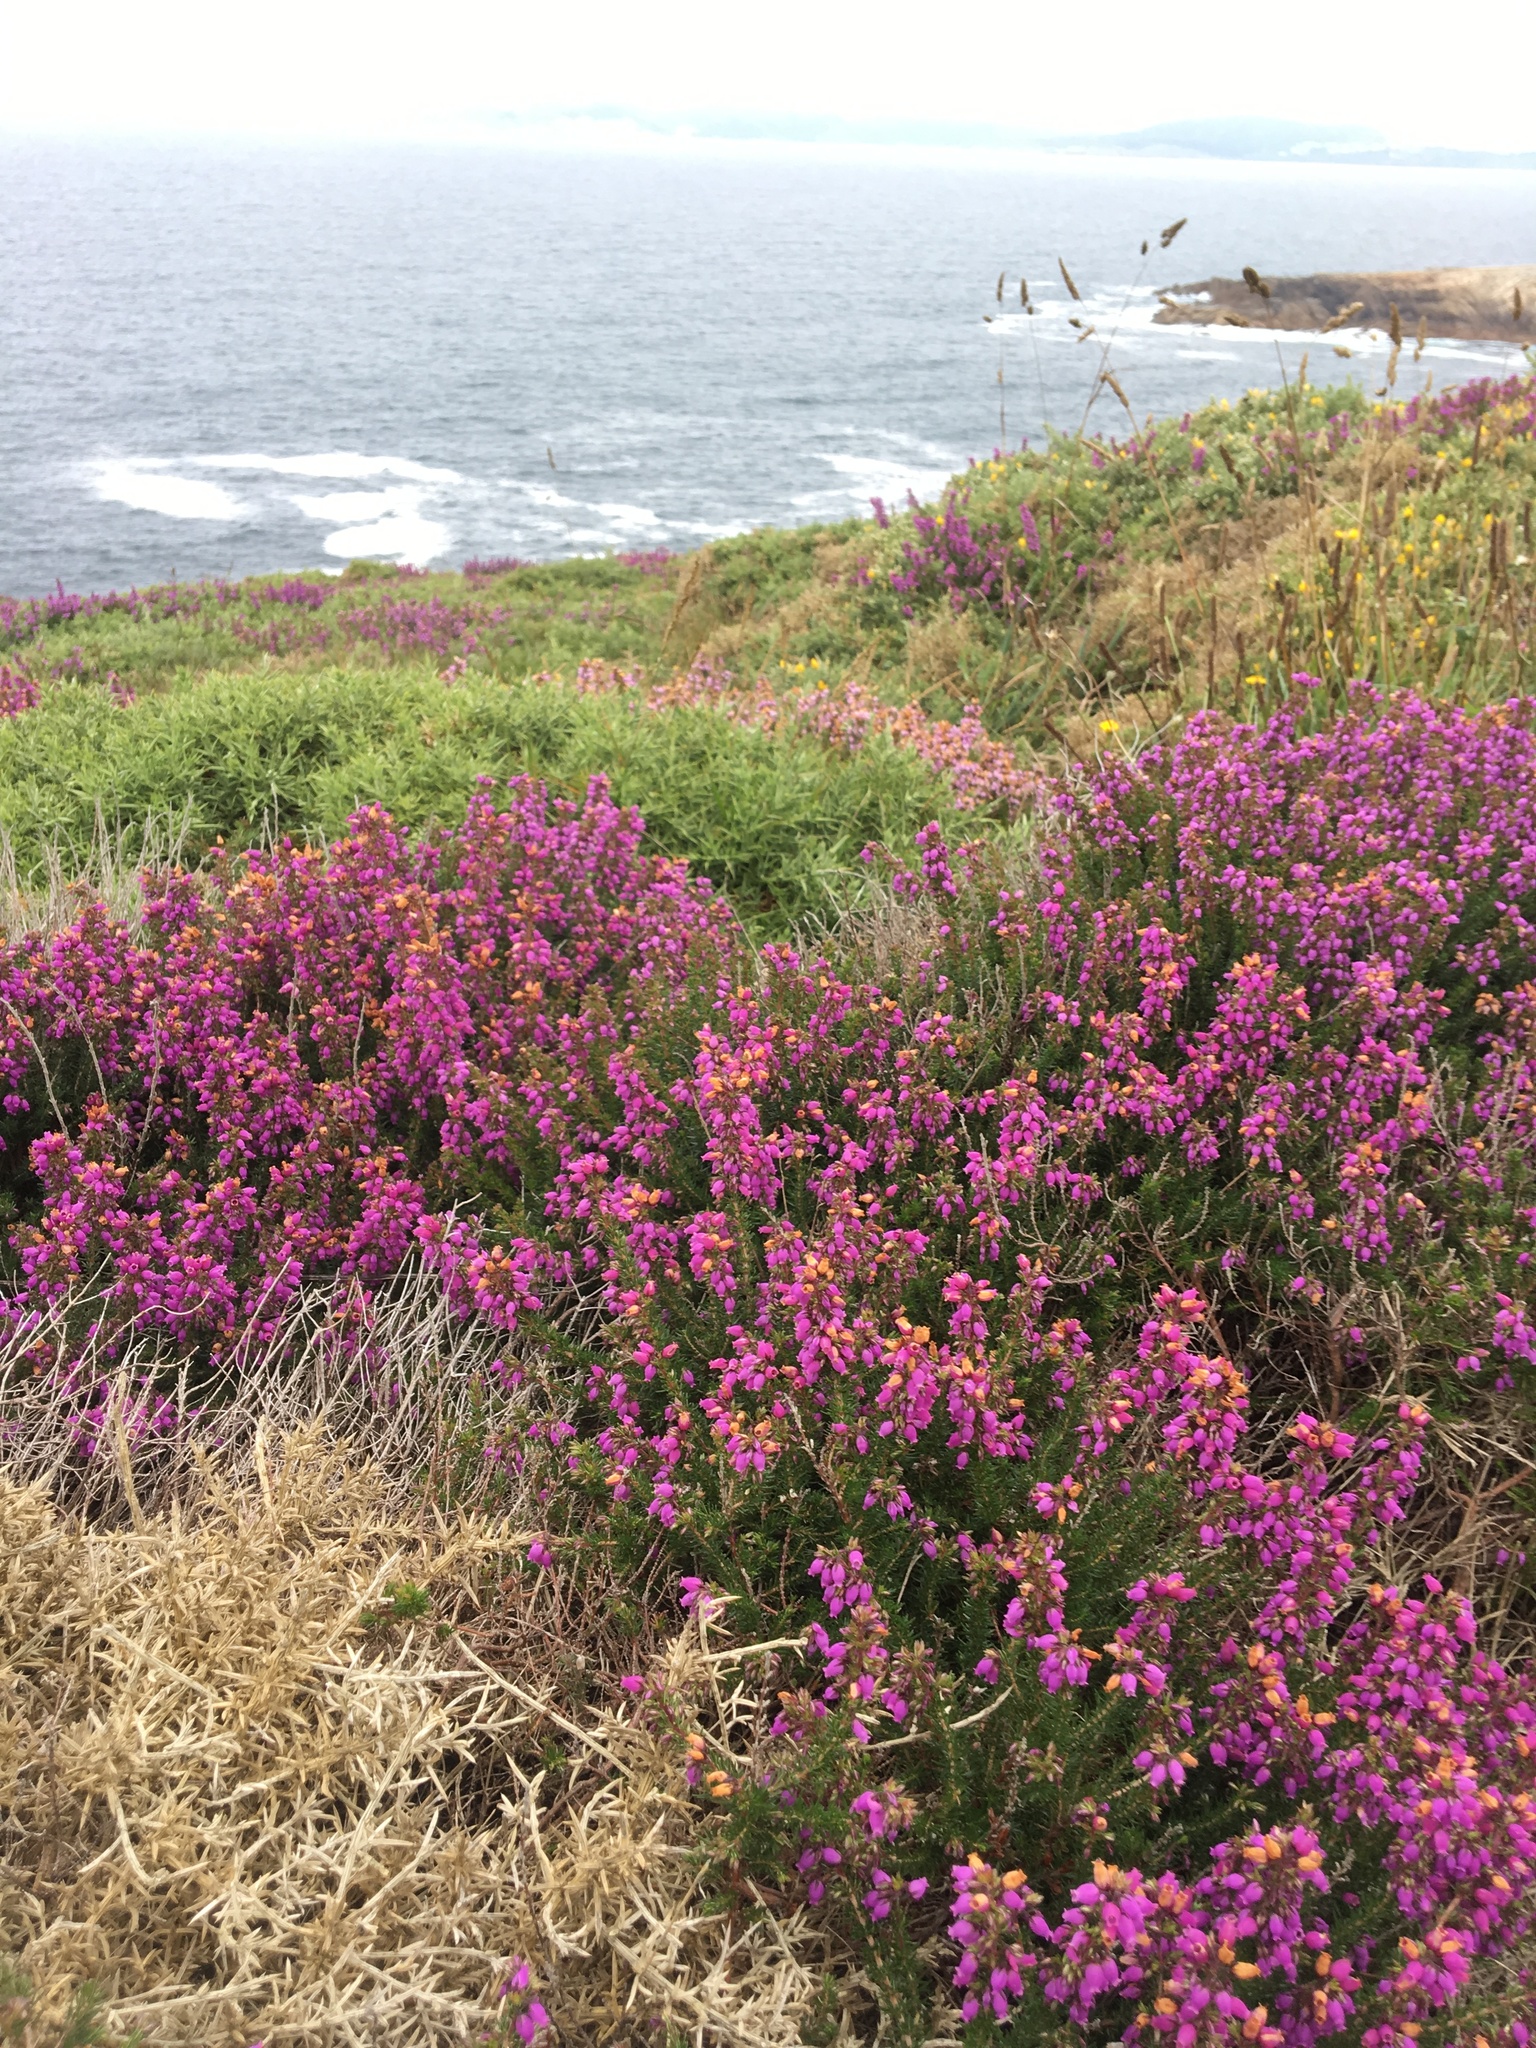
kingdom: Plantae
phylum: Tracheophyta
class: Magnoliopsida
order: Ericales
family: Ericaceae
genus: Erica
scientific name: Erica cinerea
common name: Bell heather
